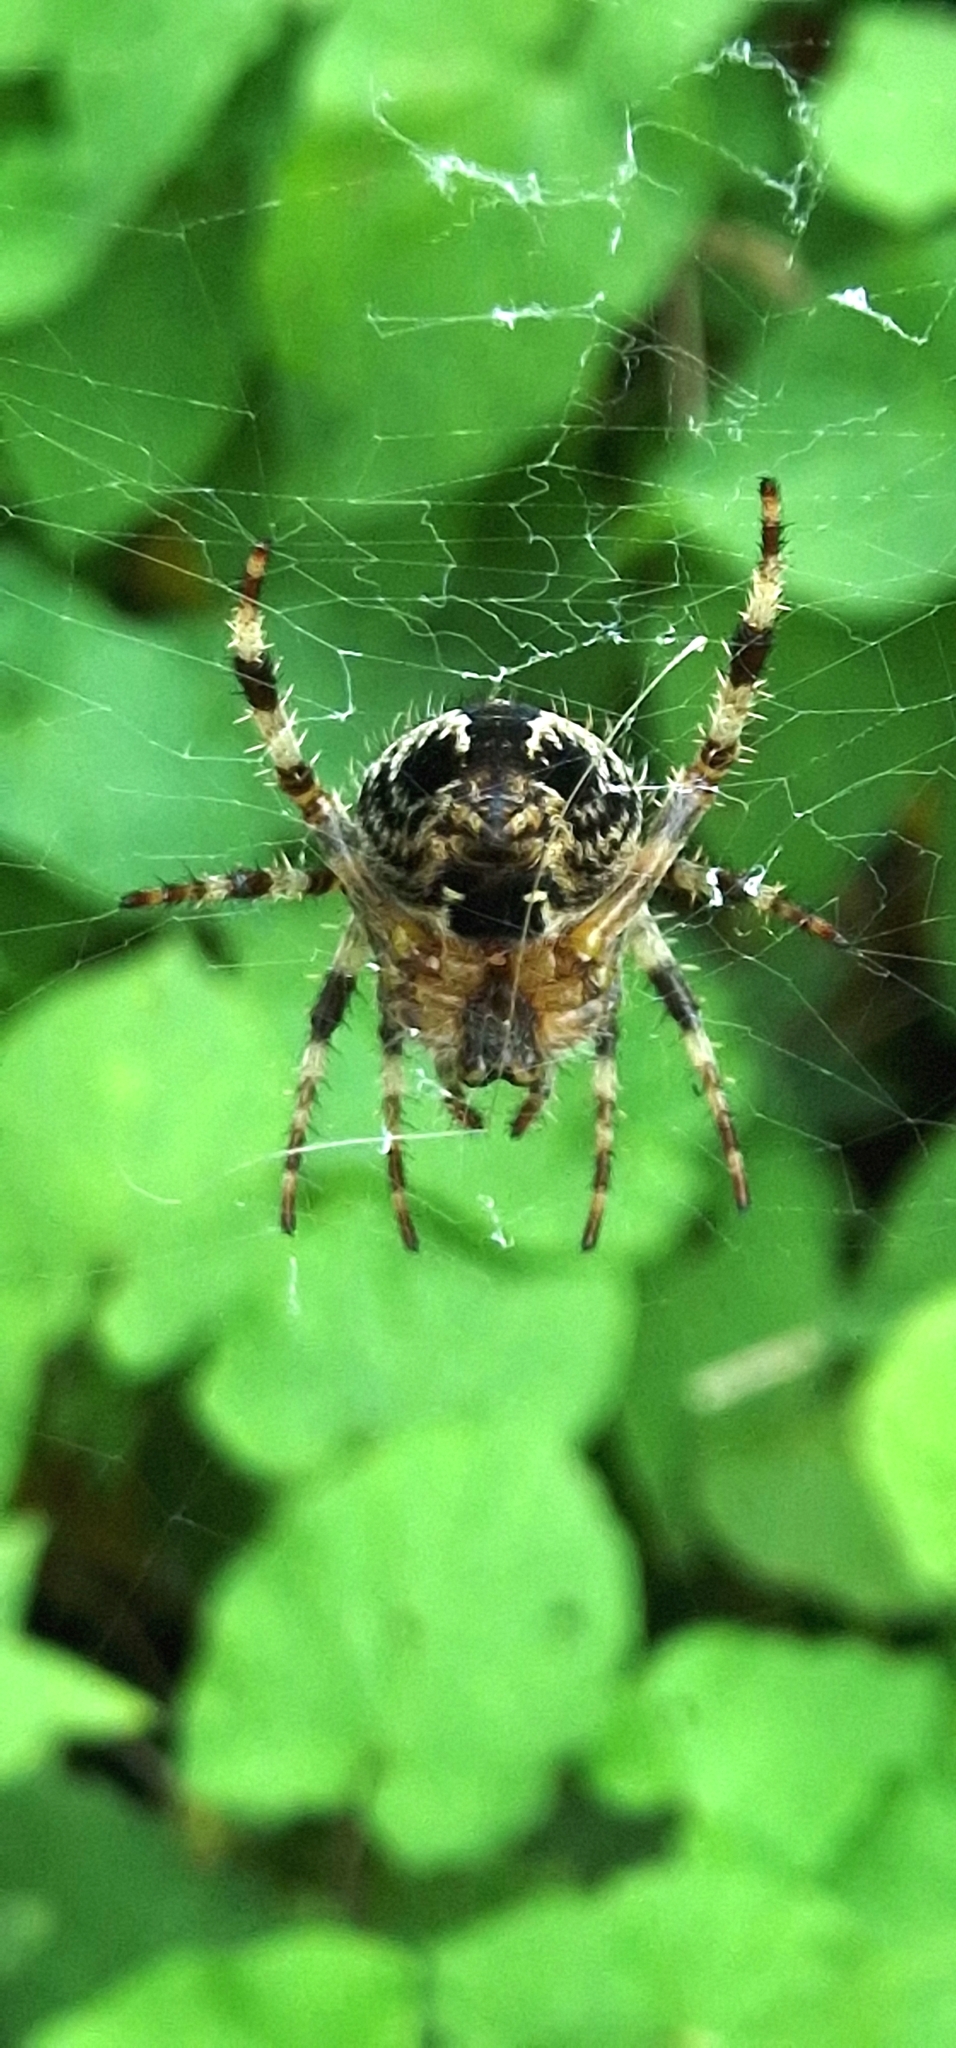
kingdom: Animalia
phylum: Arthropoda
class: Arachnida
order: Araneae
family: Araneidae
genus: Araneus
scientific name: Araneus diadematus
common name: Cross orbweaver
